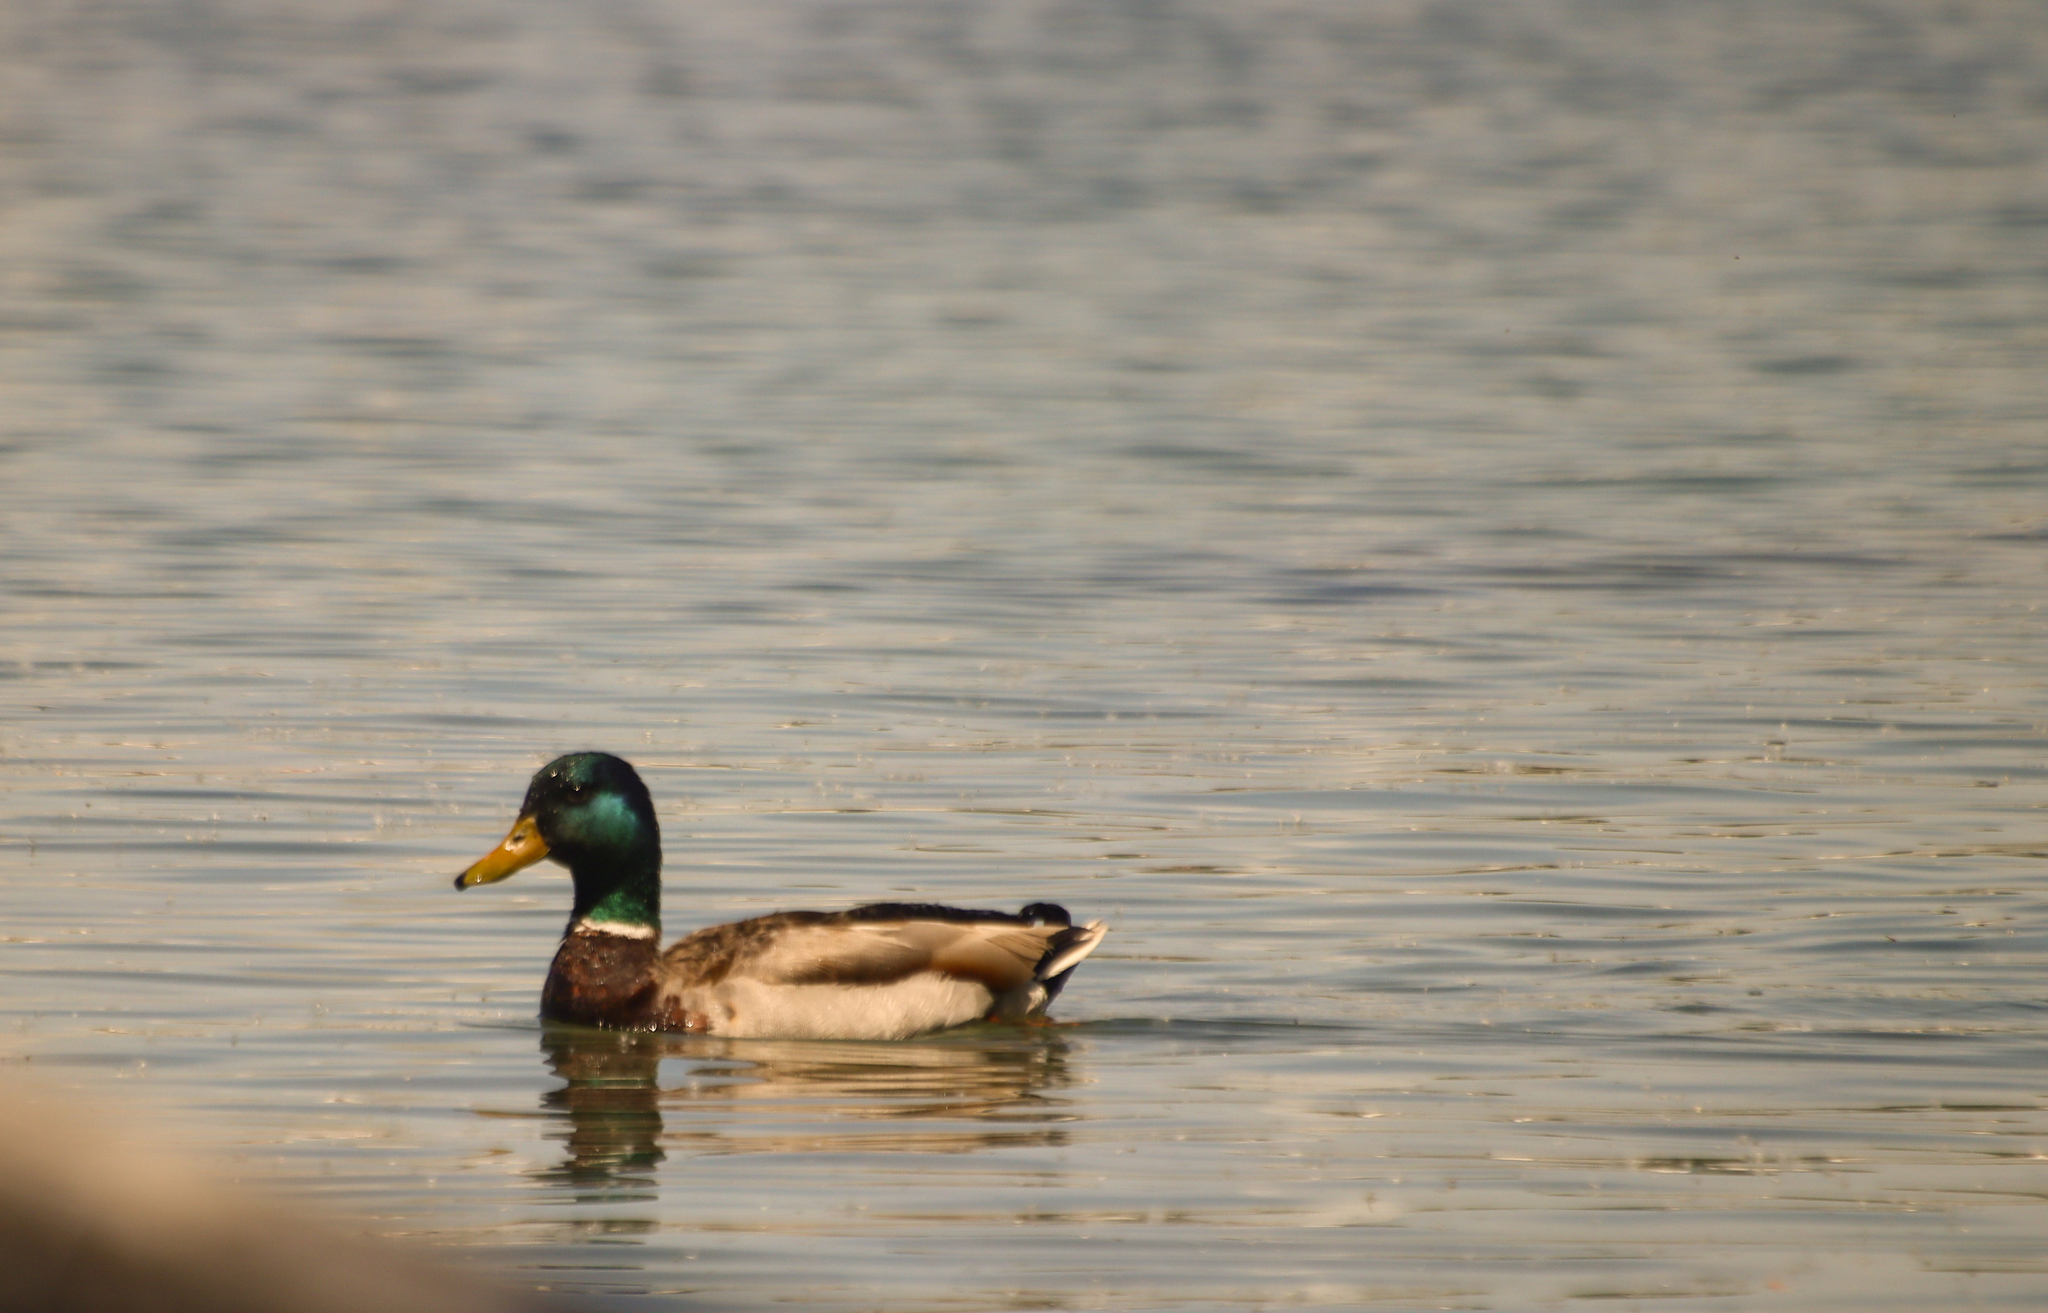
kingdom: Animalia
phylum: Chordata
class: Aves
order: Anseriformes
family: Anatidae
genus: Anas
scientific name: Anas platyrhynchos
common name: Mallard
